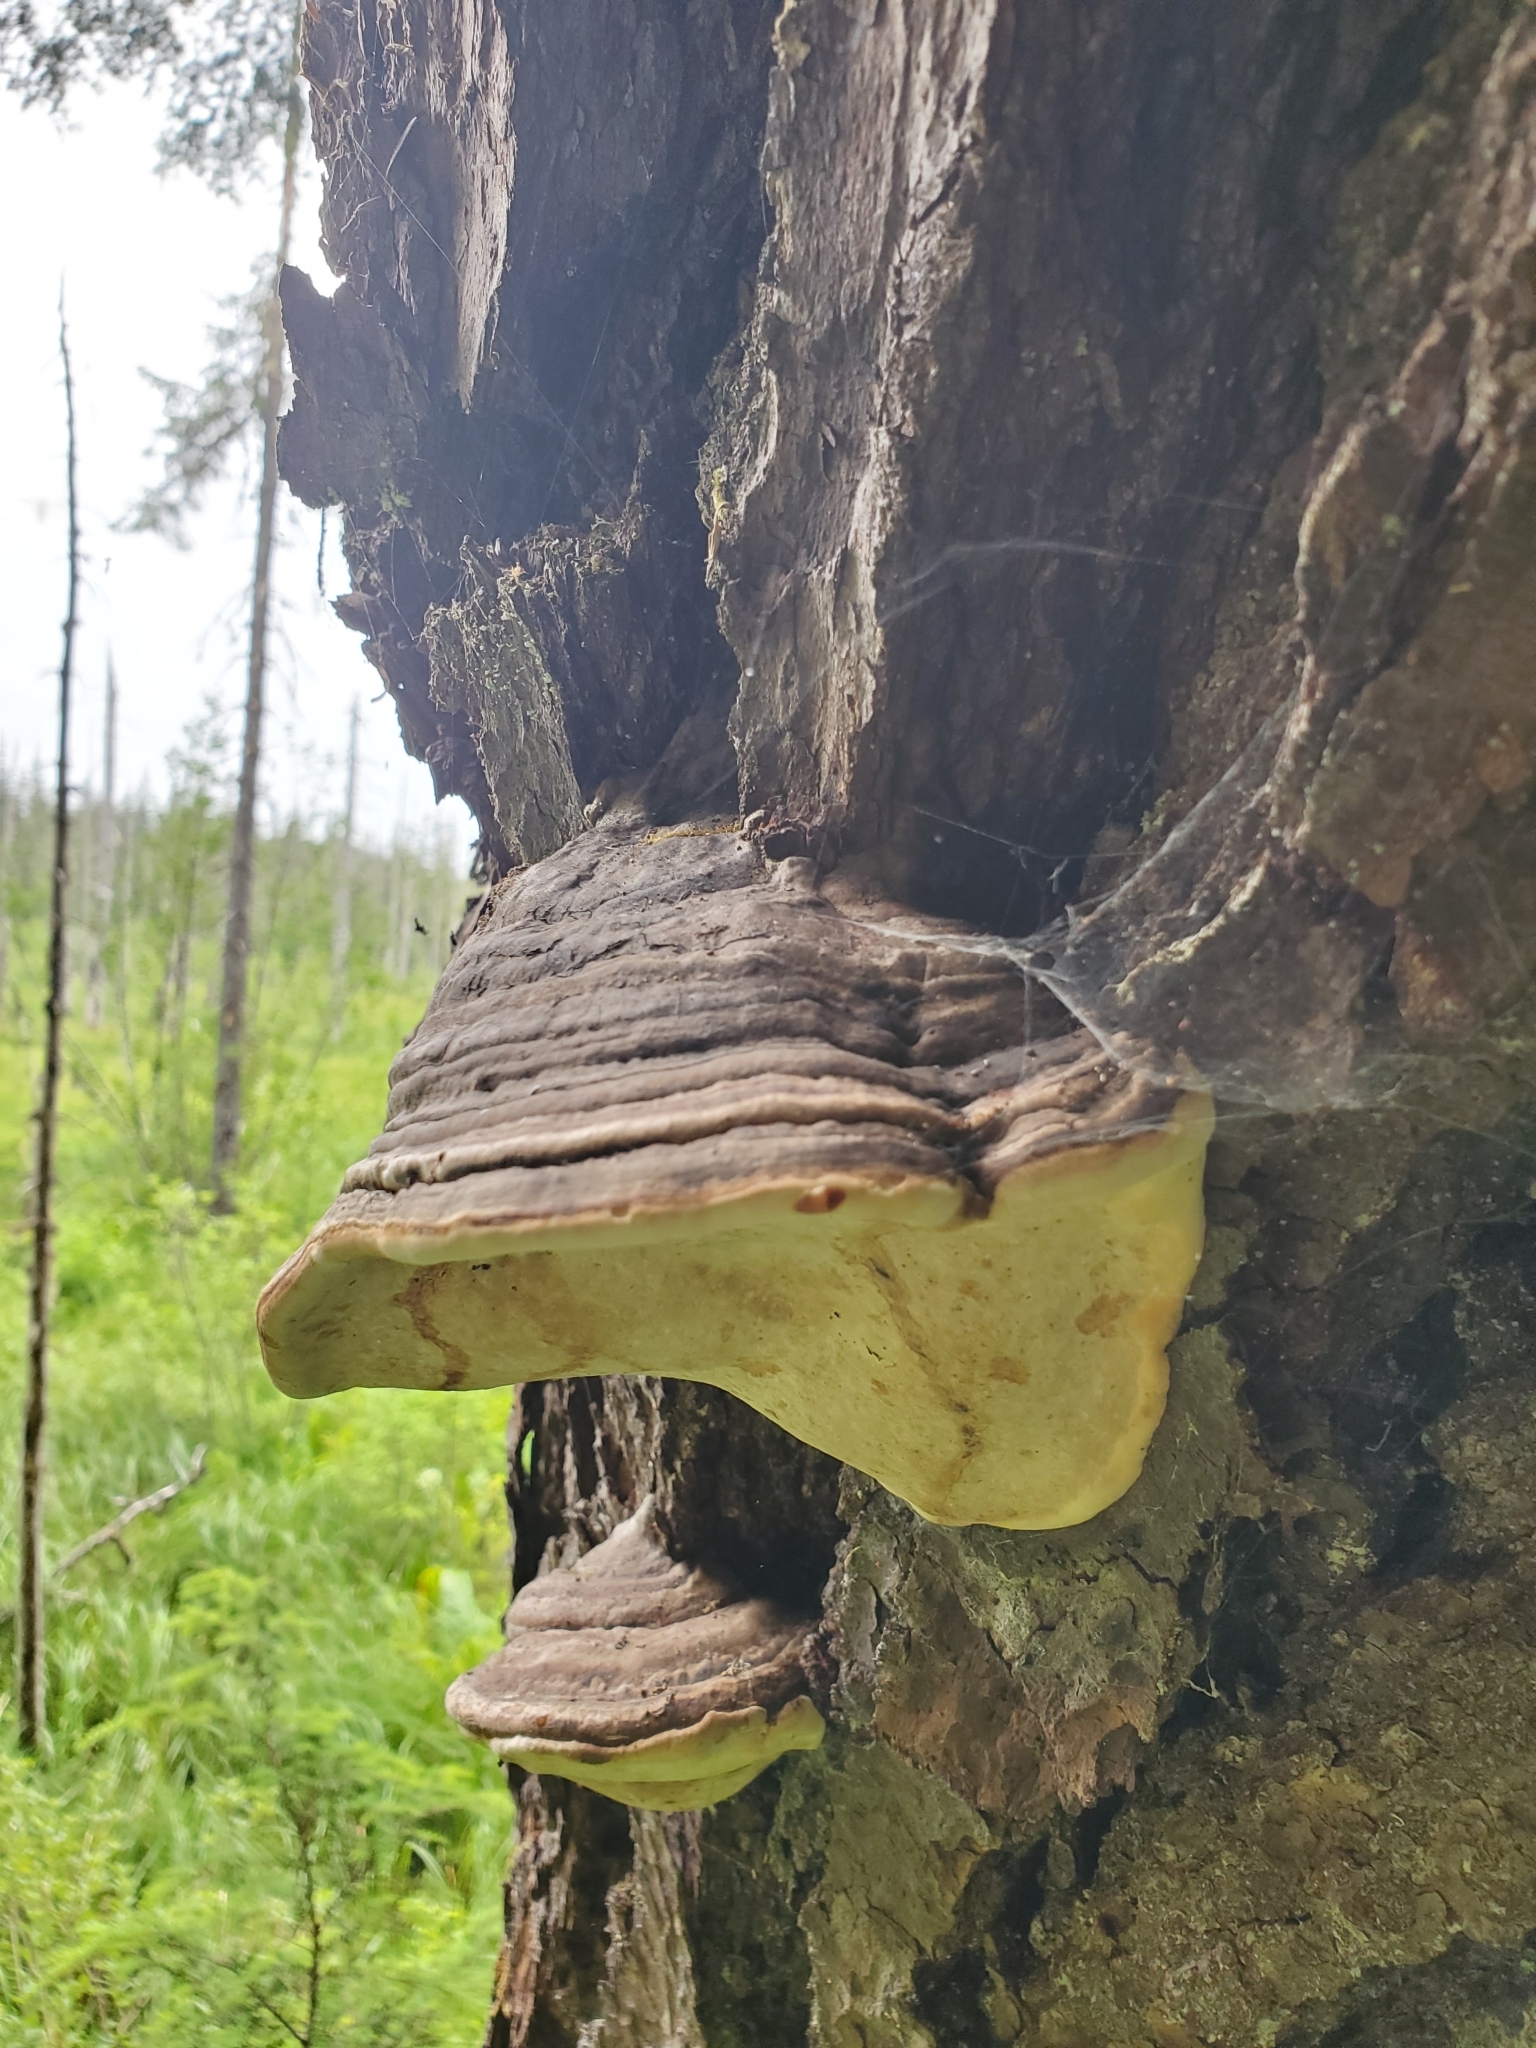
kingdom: Fungi
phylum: Basidiomycota
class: Agaricomycetes
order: Polyporales
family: Fomitopsidaceae
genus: Fomitopsis
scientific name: Fomitopsis ochracea
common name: American brown fomitopsis
